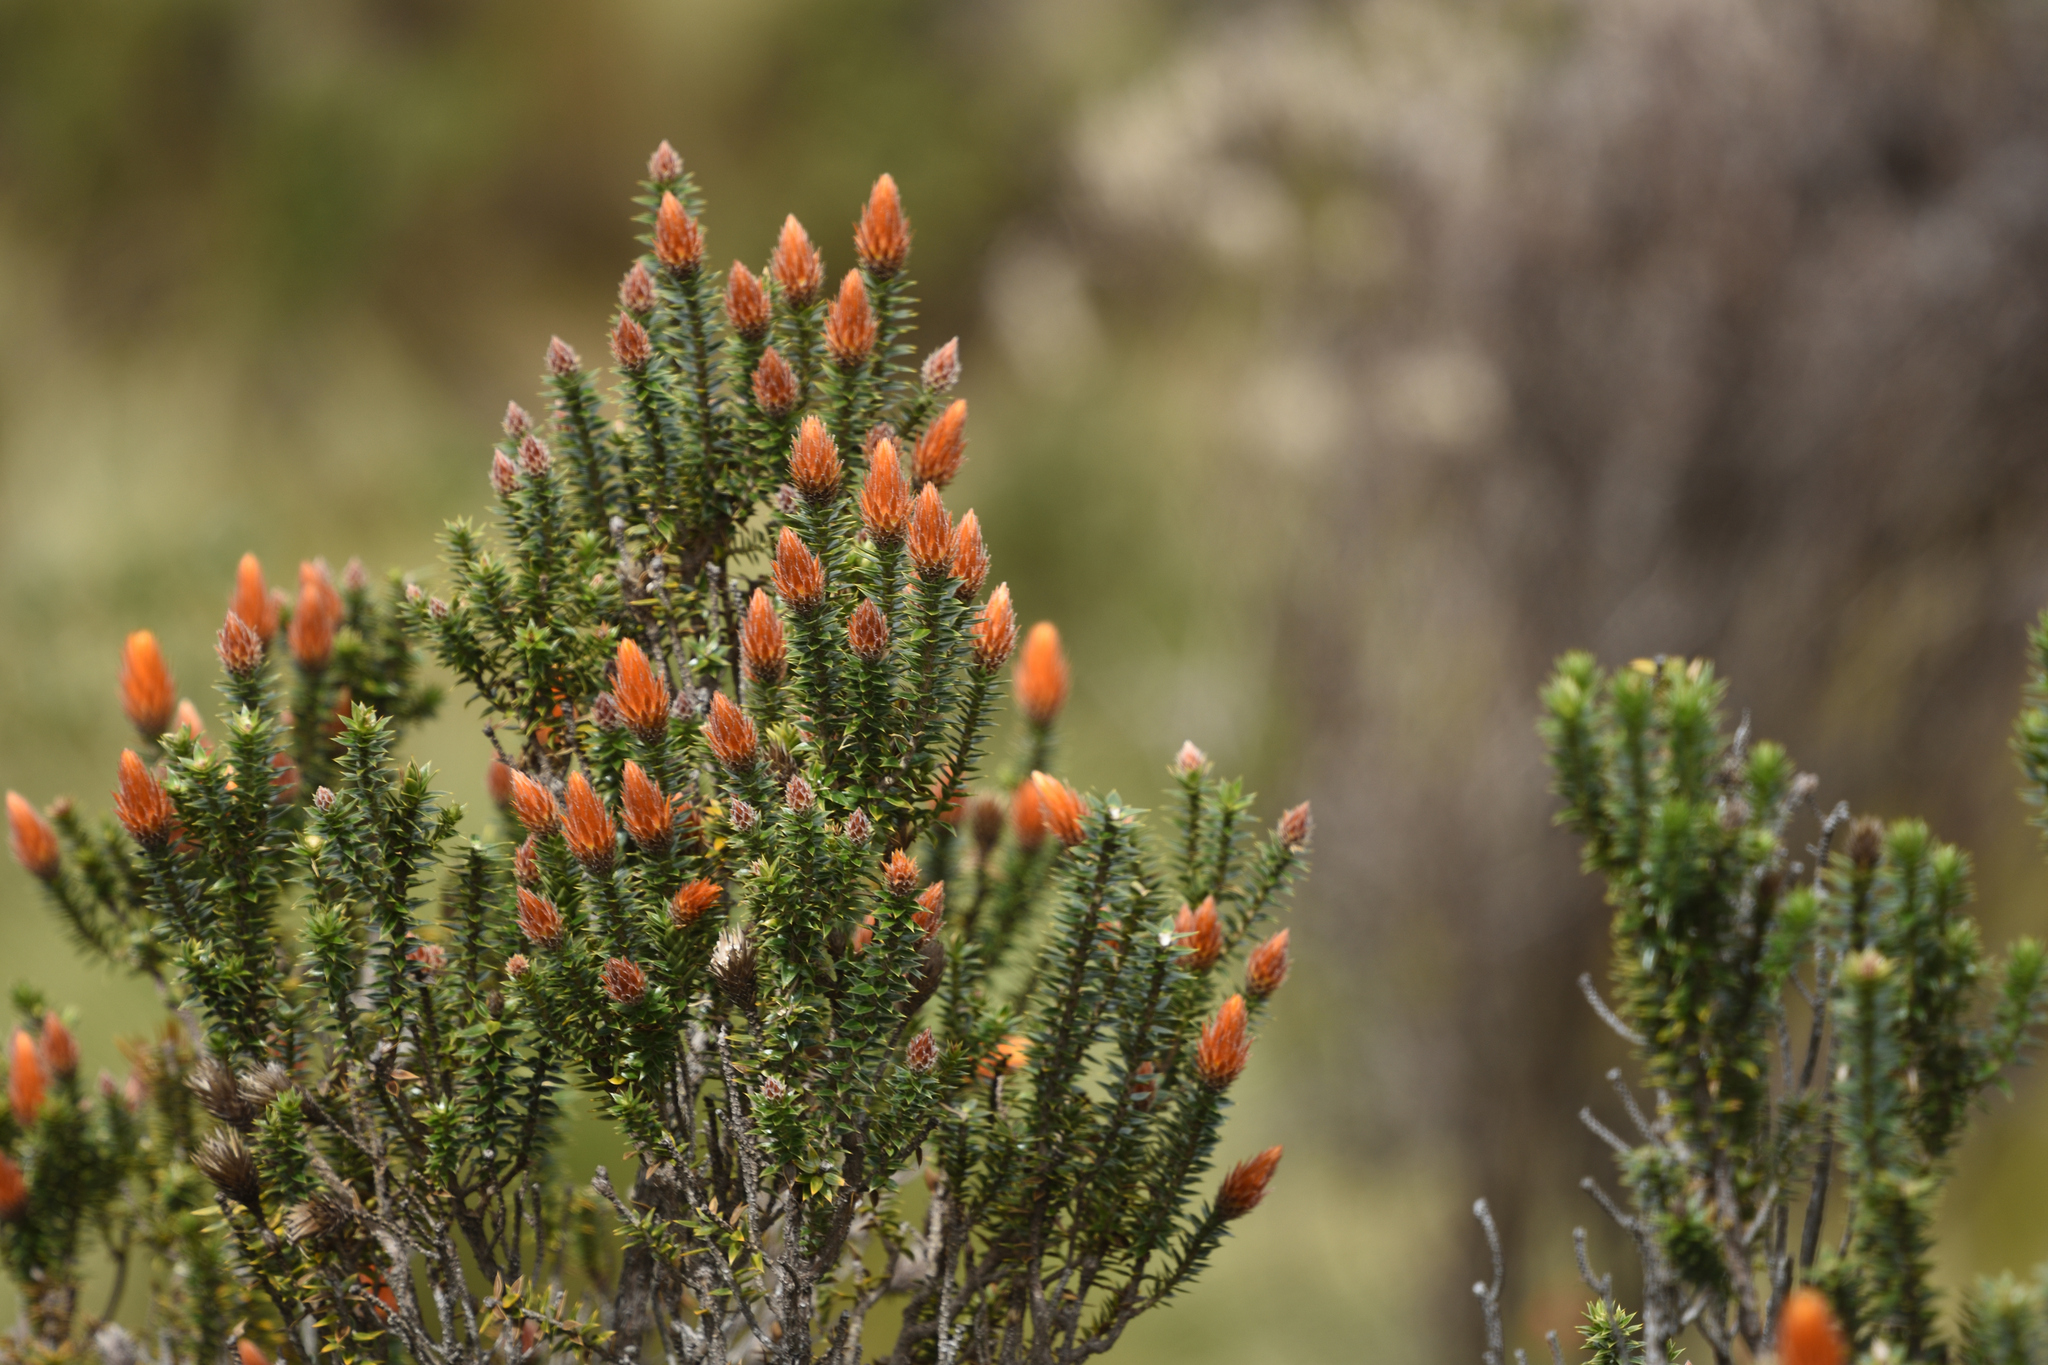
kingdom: Plantae
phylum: Tracheophyta
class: Magnoliopsida
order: Asterales
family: Asteraceae
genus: Chuquiraga
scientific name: Chuquiraga jussieui
